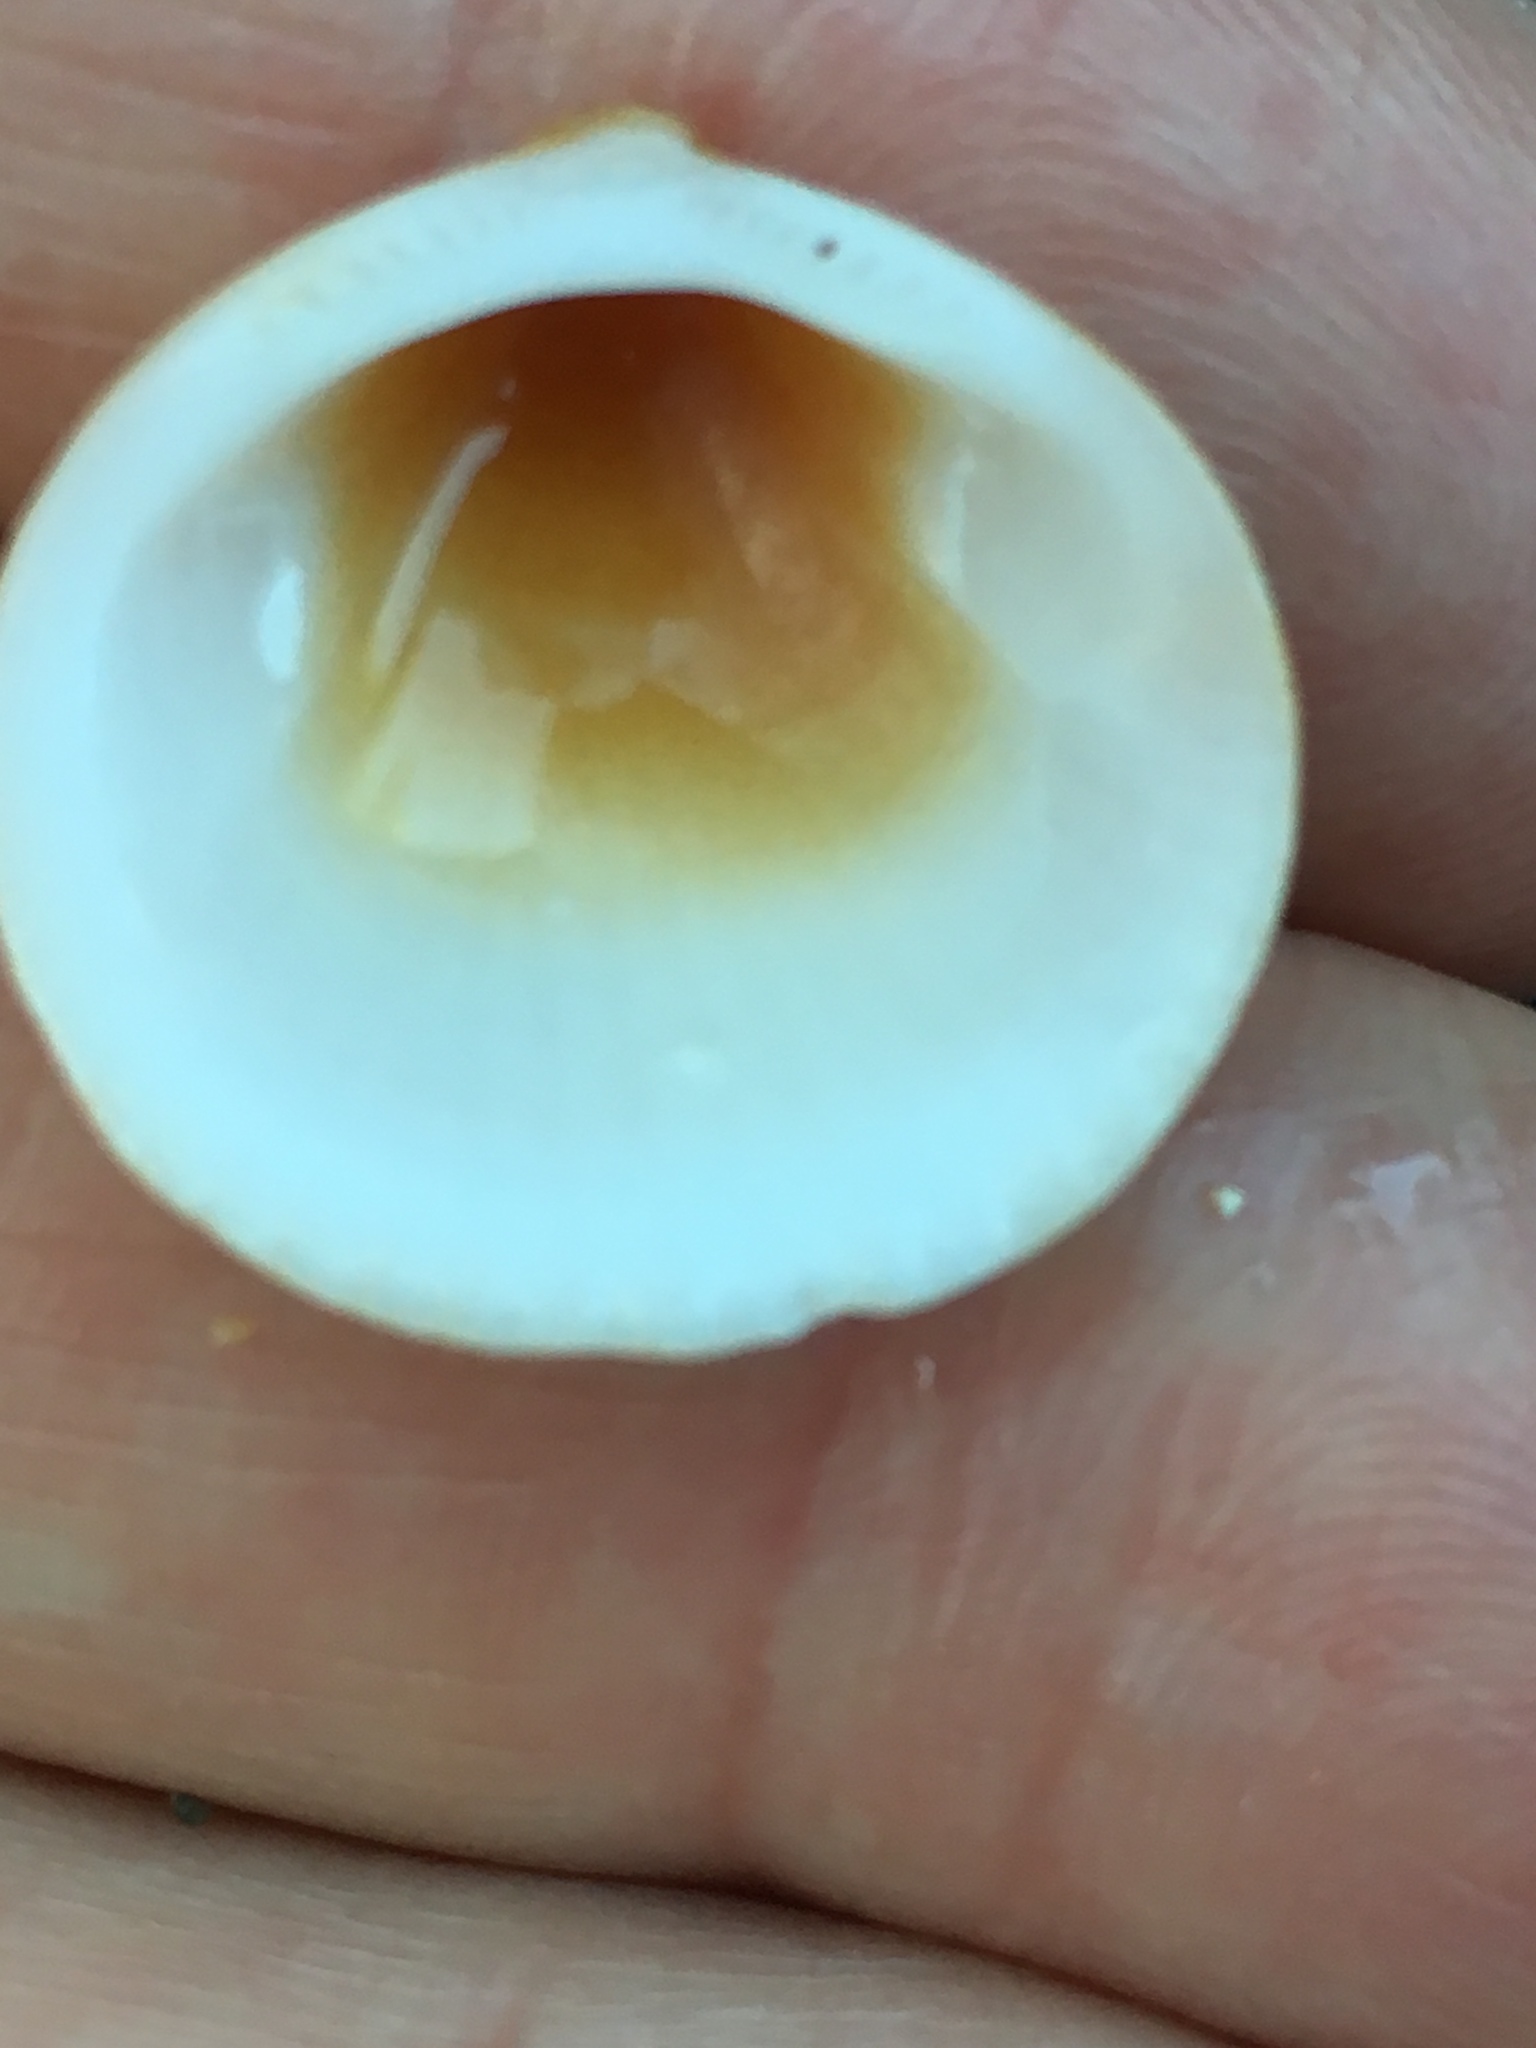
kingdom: Animalia
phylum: Mollusca
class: Bivalvia
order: Arcida
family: Glycymerididae
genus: Glycymeris
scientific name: Glycymeris spectralis
